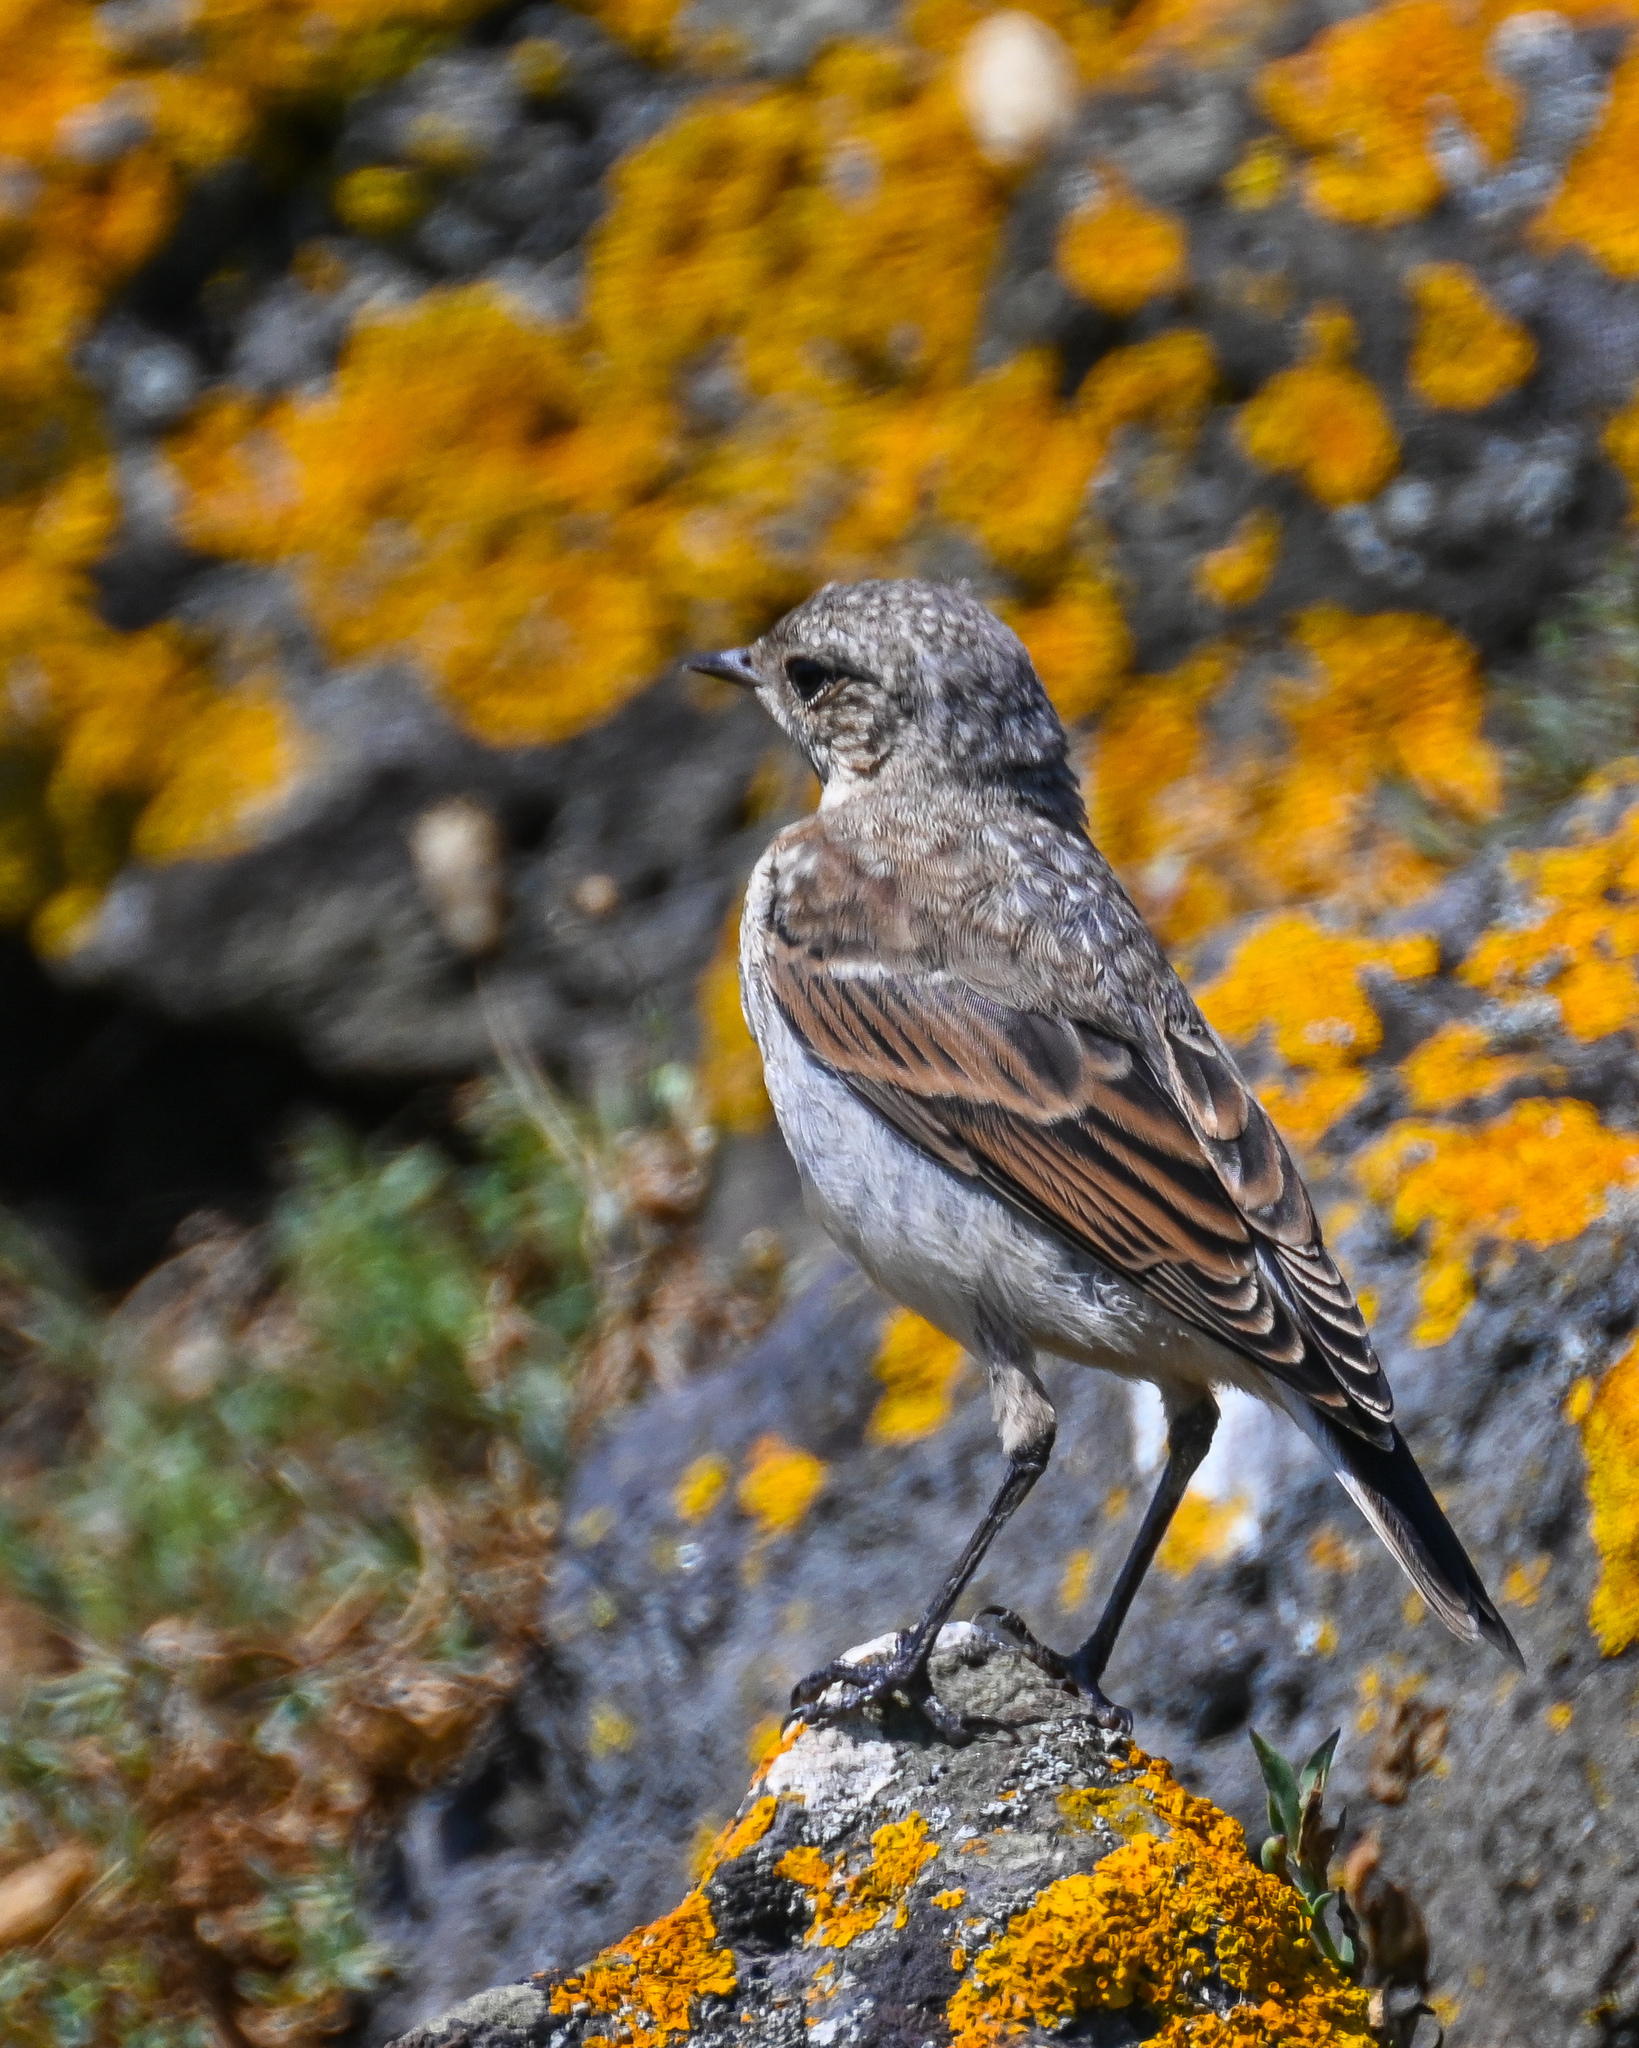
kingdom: Animalia
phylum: Chordata
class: Aves
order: Passeriformes
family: Muscicapidae
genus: Oenanthe
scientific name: Oenanthe oenanthe
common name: Northern wheatear
